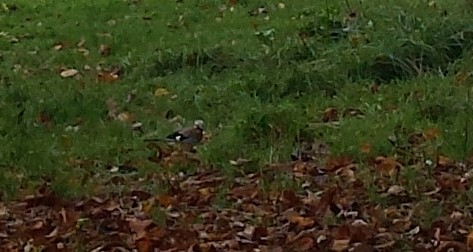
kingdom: Animalia
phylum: Chordata
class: Aves
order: Passeriformes
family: Corvidae
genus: Garrulus
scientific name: Garrulus glandarius
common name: Eurasian jay
